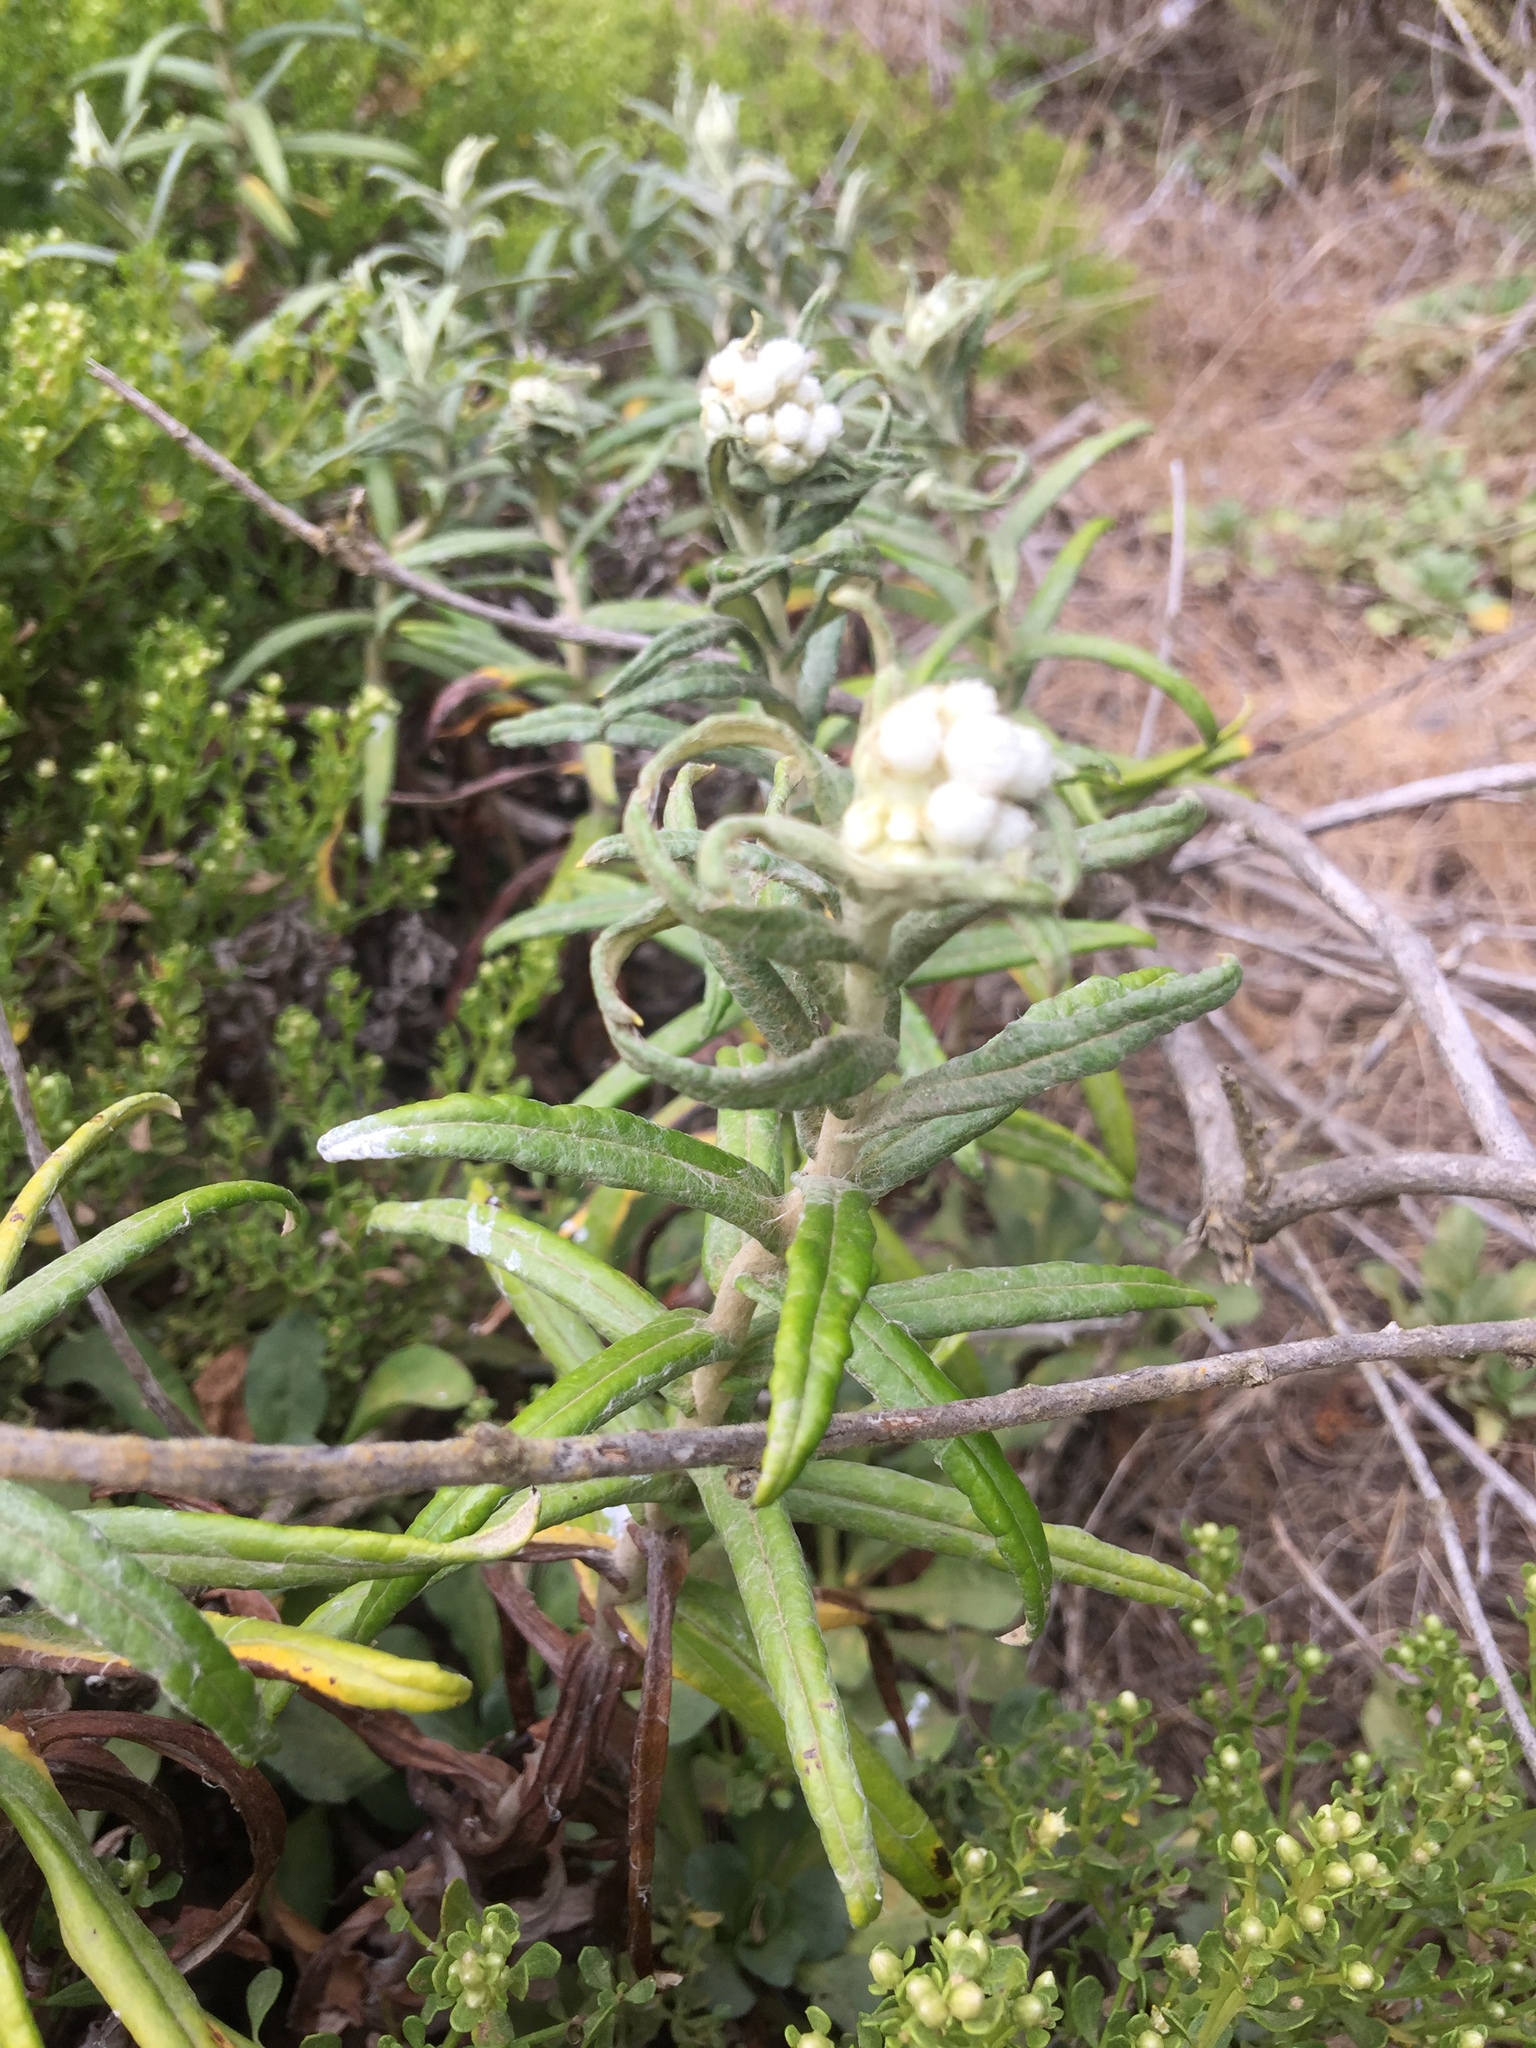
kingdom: Plantae
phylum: Tracheophyta
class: Magnoliopsida
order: Asterales
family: Asteraceae
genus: Anaphalis
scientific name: Anaphalis margaritacea
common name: Pearly everlasting
